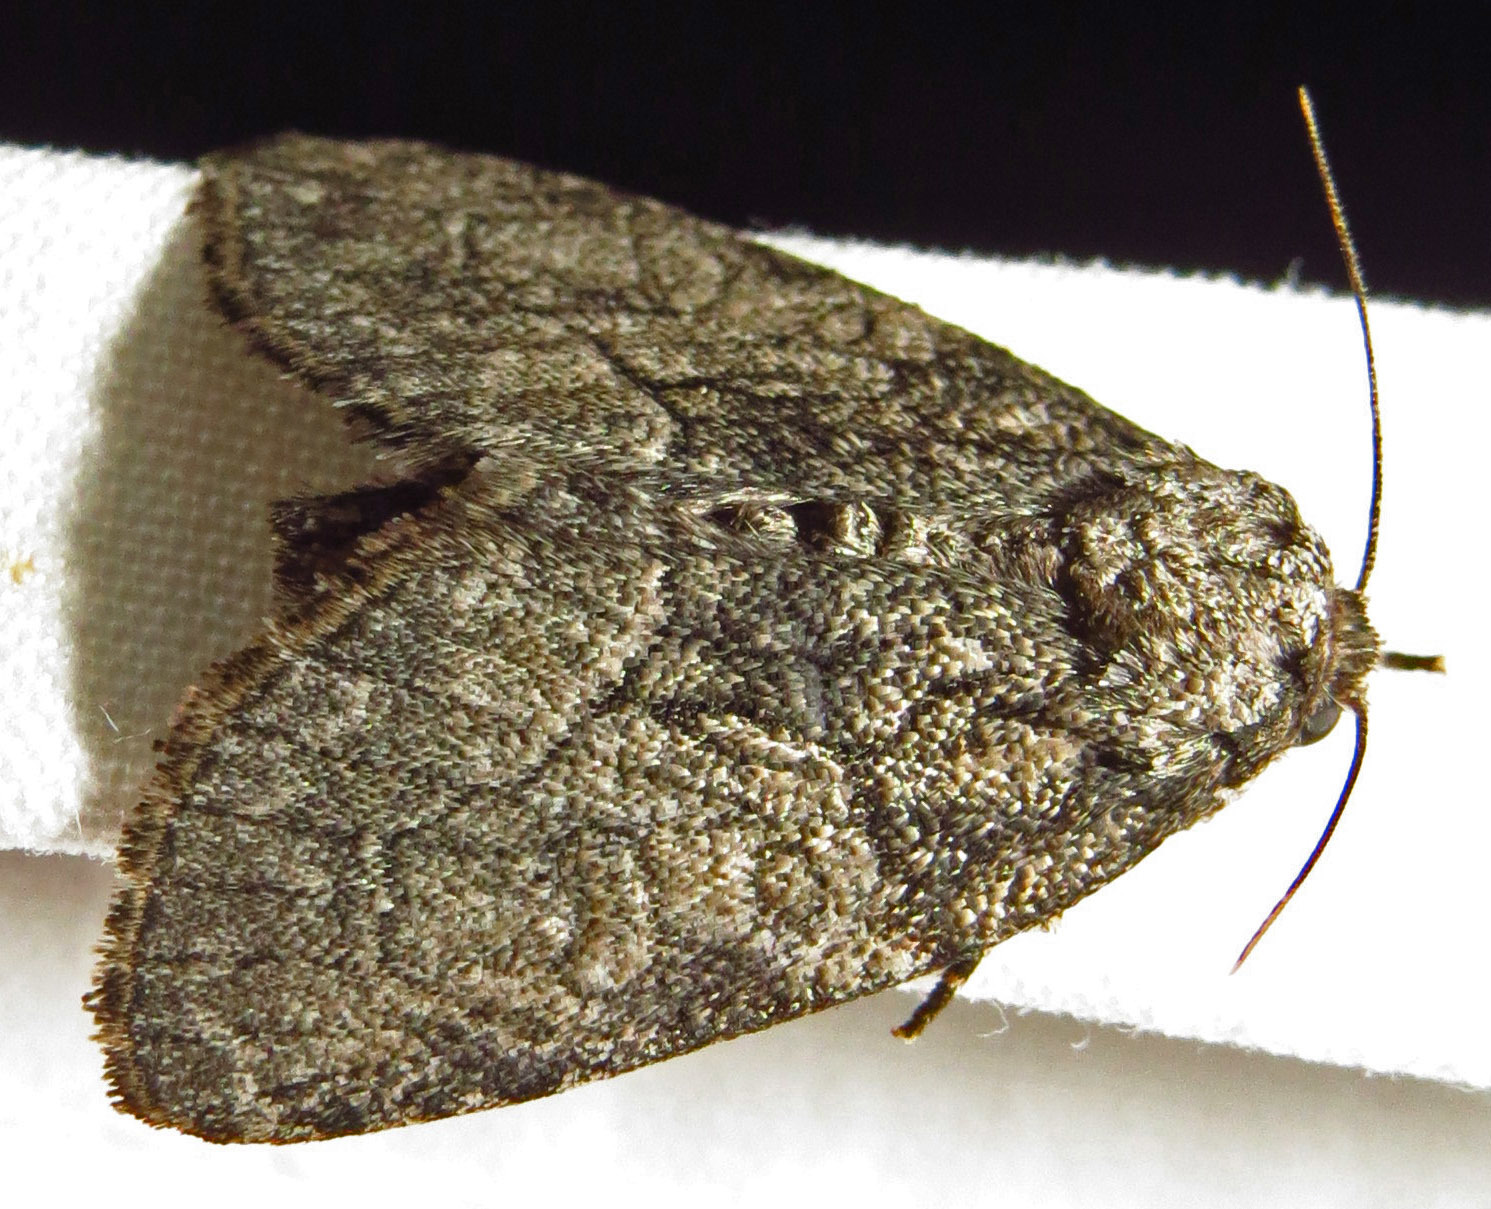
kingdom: Animalia
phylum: Arthropoda
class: Insecta
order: Lepidoptera
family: Noctuidae
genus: Raphia
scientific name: Raphia frater
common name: Brother
